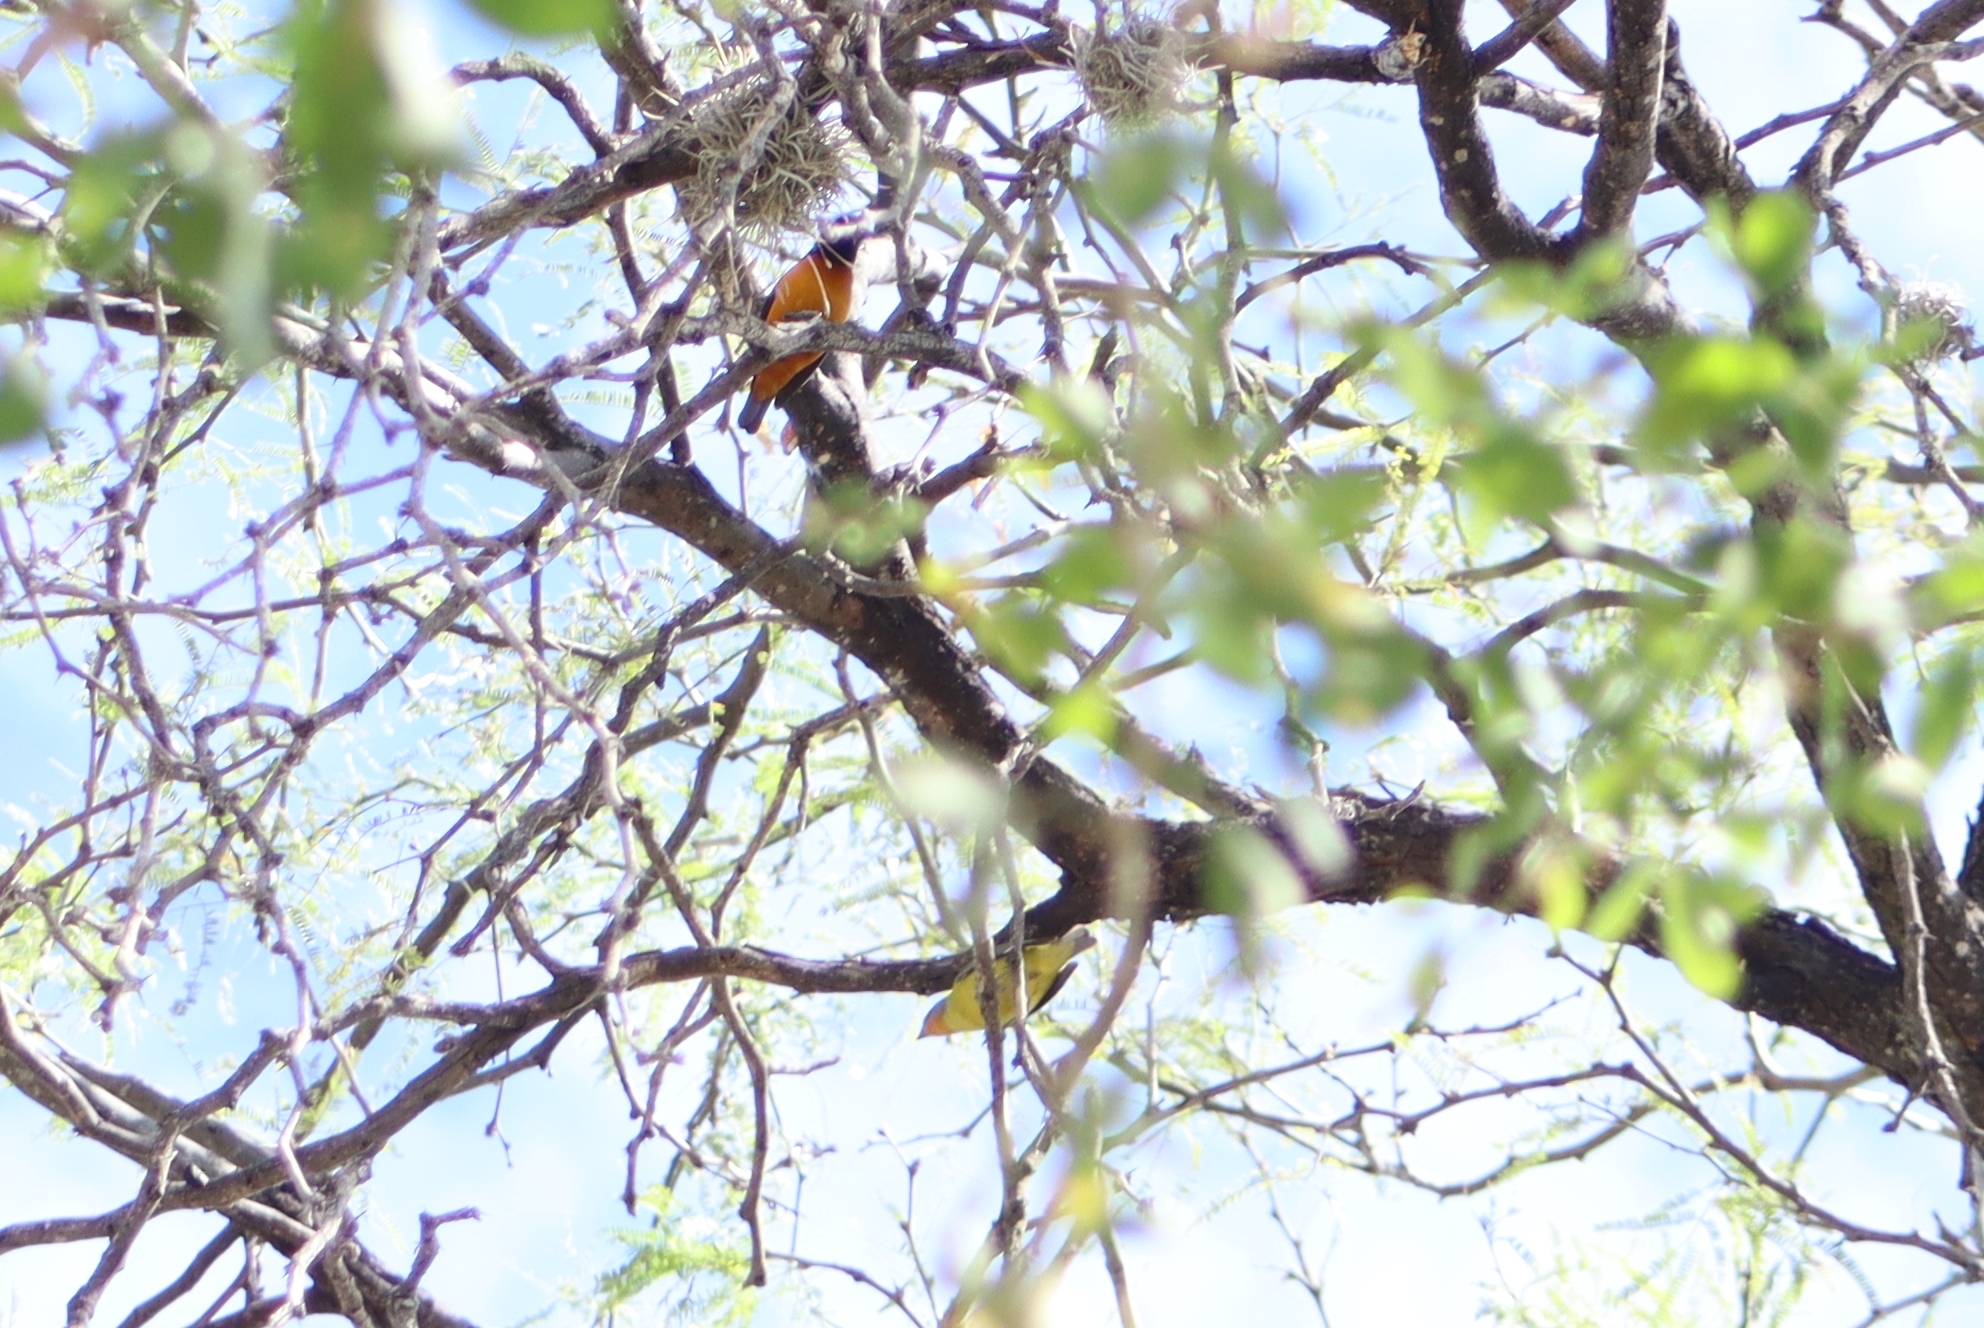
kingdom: Animalia
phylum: Chordata
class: Aves
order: Passeriformes
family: Fringillidae
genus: Euphonia
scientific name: Euphonia elegantissima
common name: Elegant euphonia
